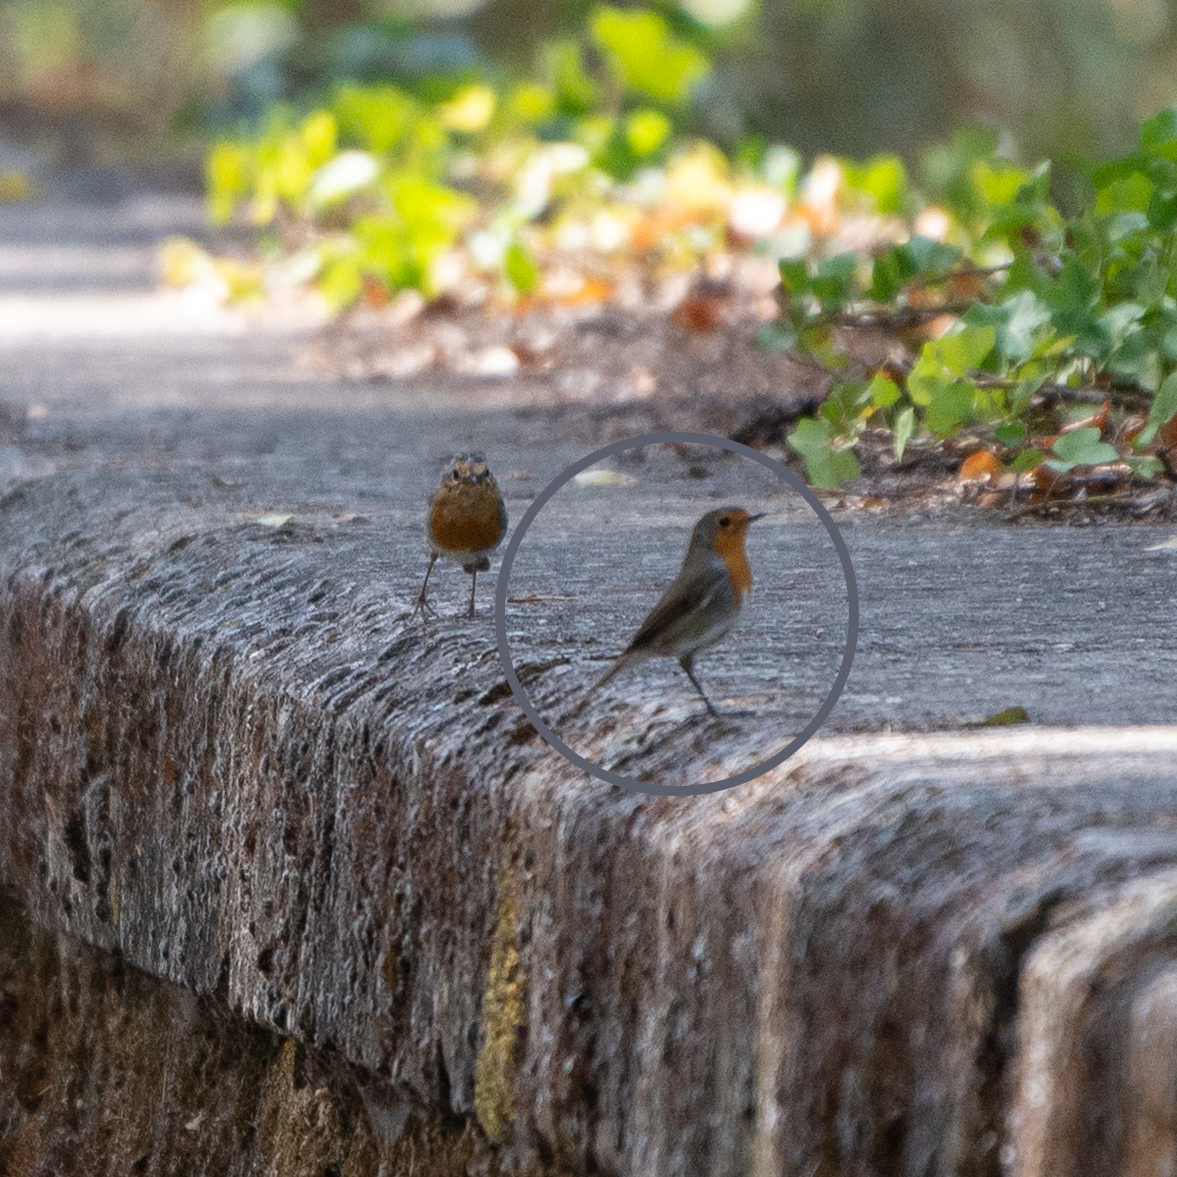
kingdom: Animalia
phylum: Chordata
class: Aves
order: Passeriformes
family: Muscicapidae
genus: Erithacus
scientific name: Erithacus rubecula
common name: European robin
